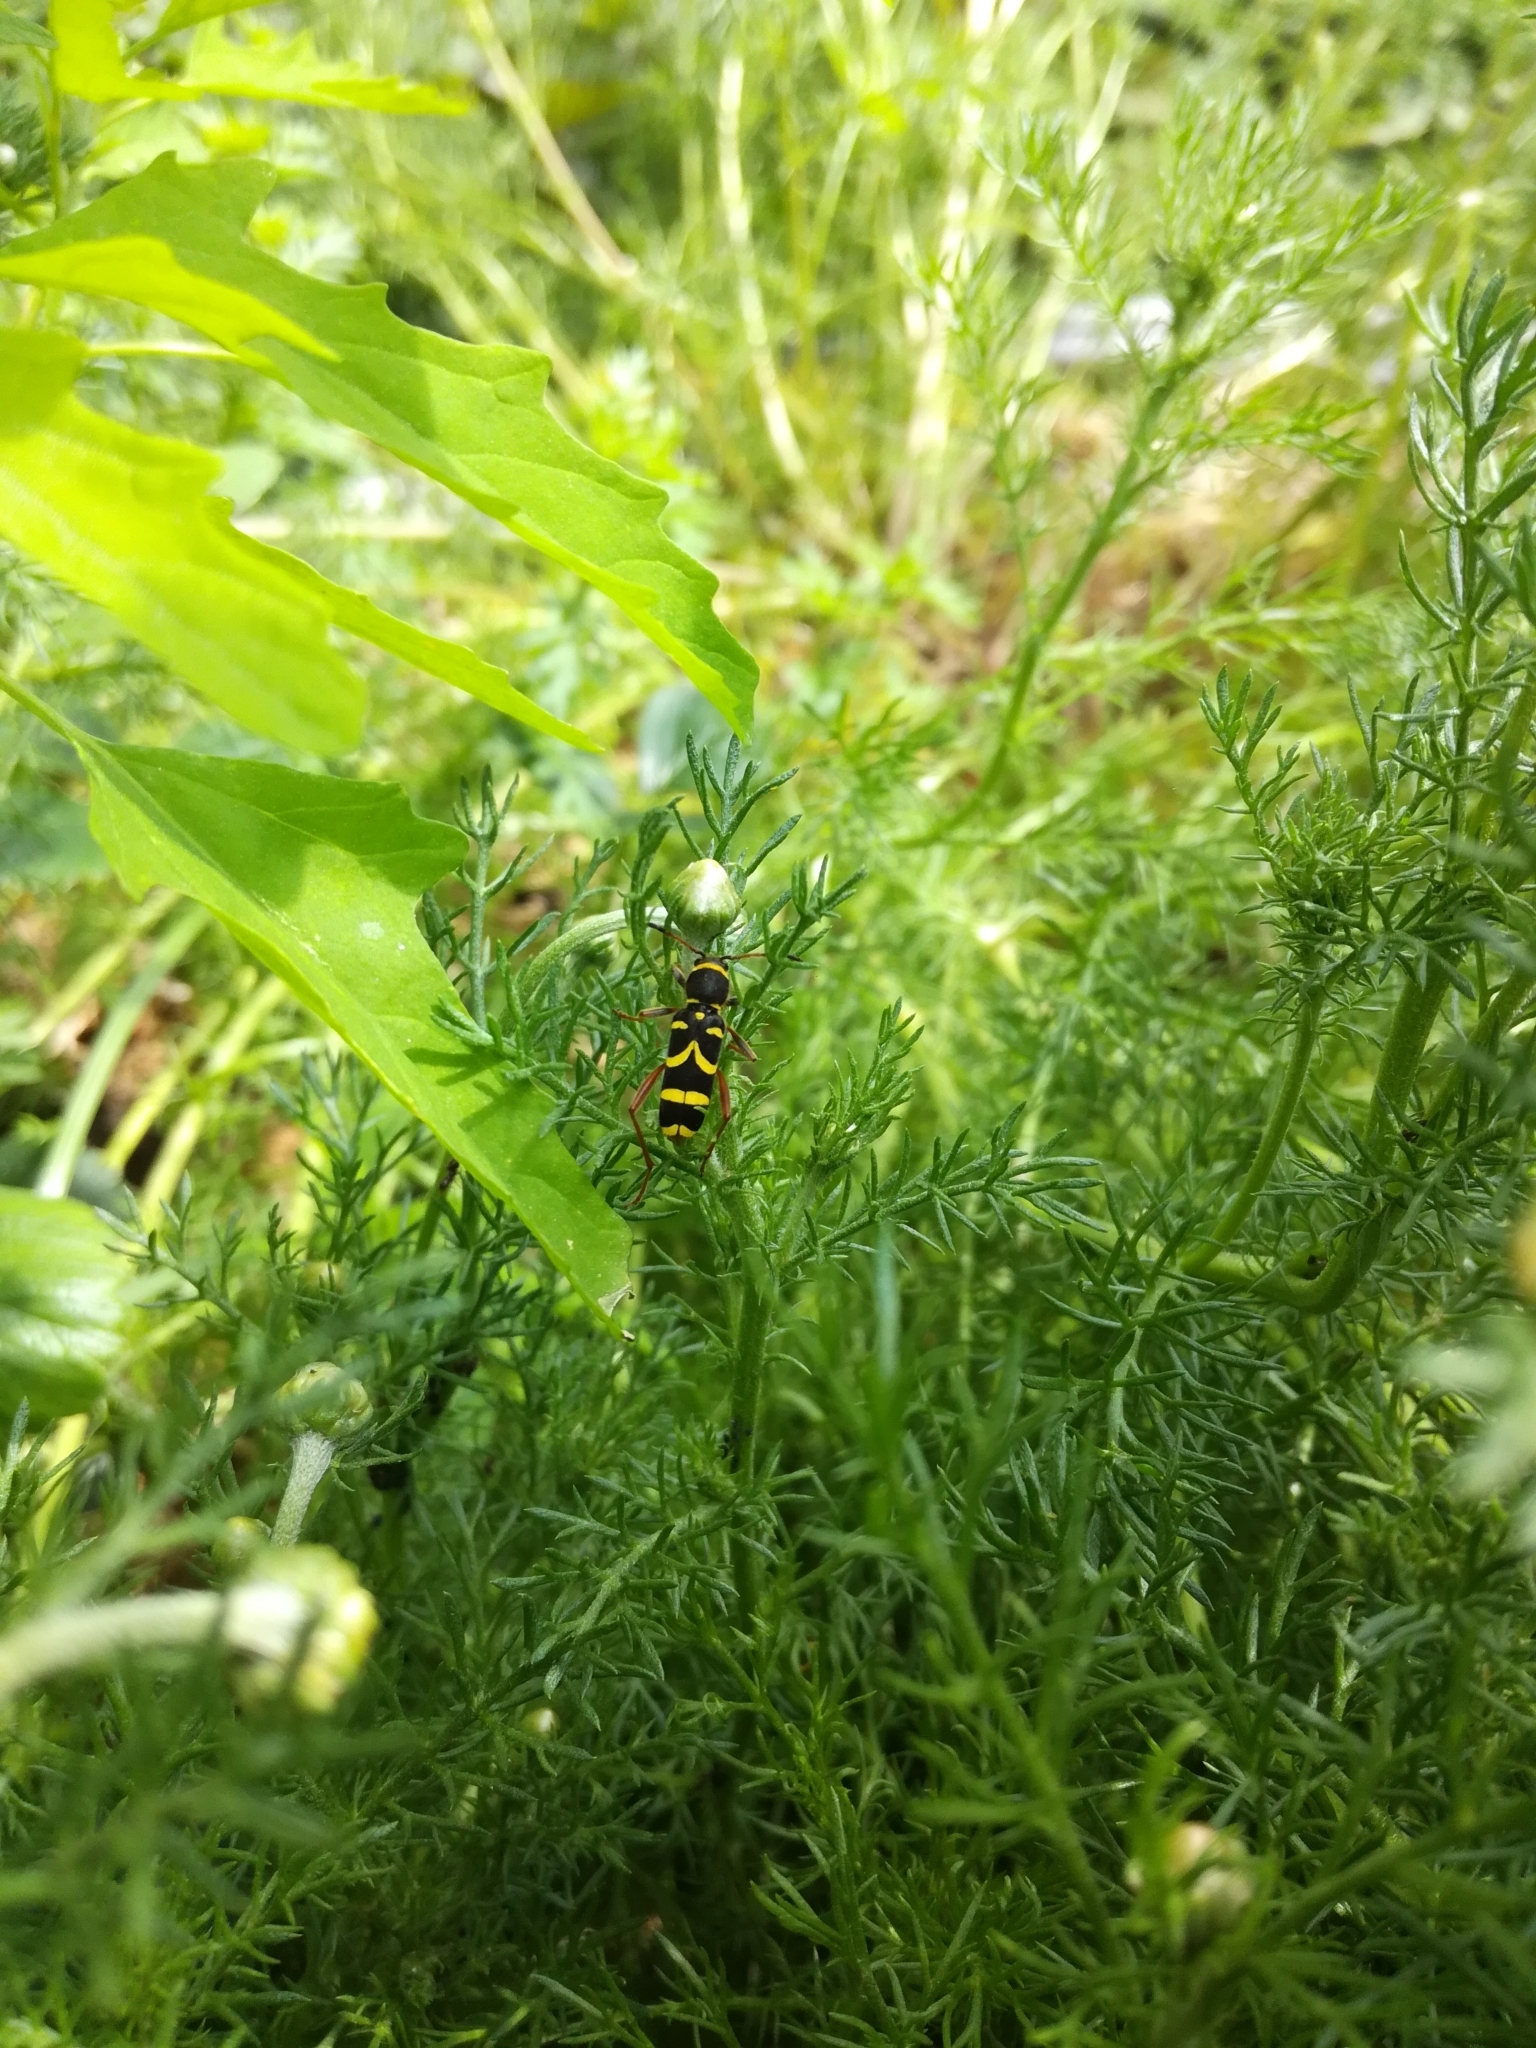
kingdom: Animalia
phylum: Arthropoda
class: Insecta
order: Coleoptera
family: Cerambycidae
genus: Clytus
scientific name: Clytus arietis
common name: Wasp beetle
